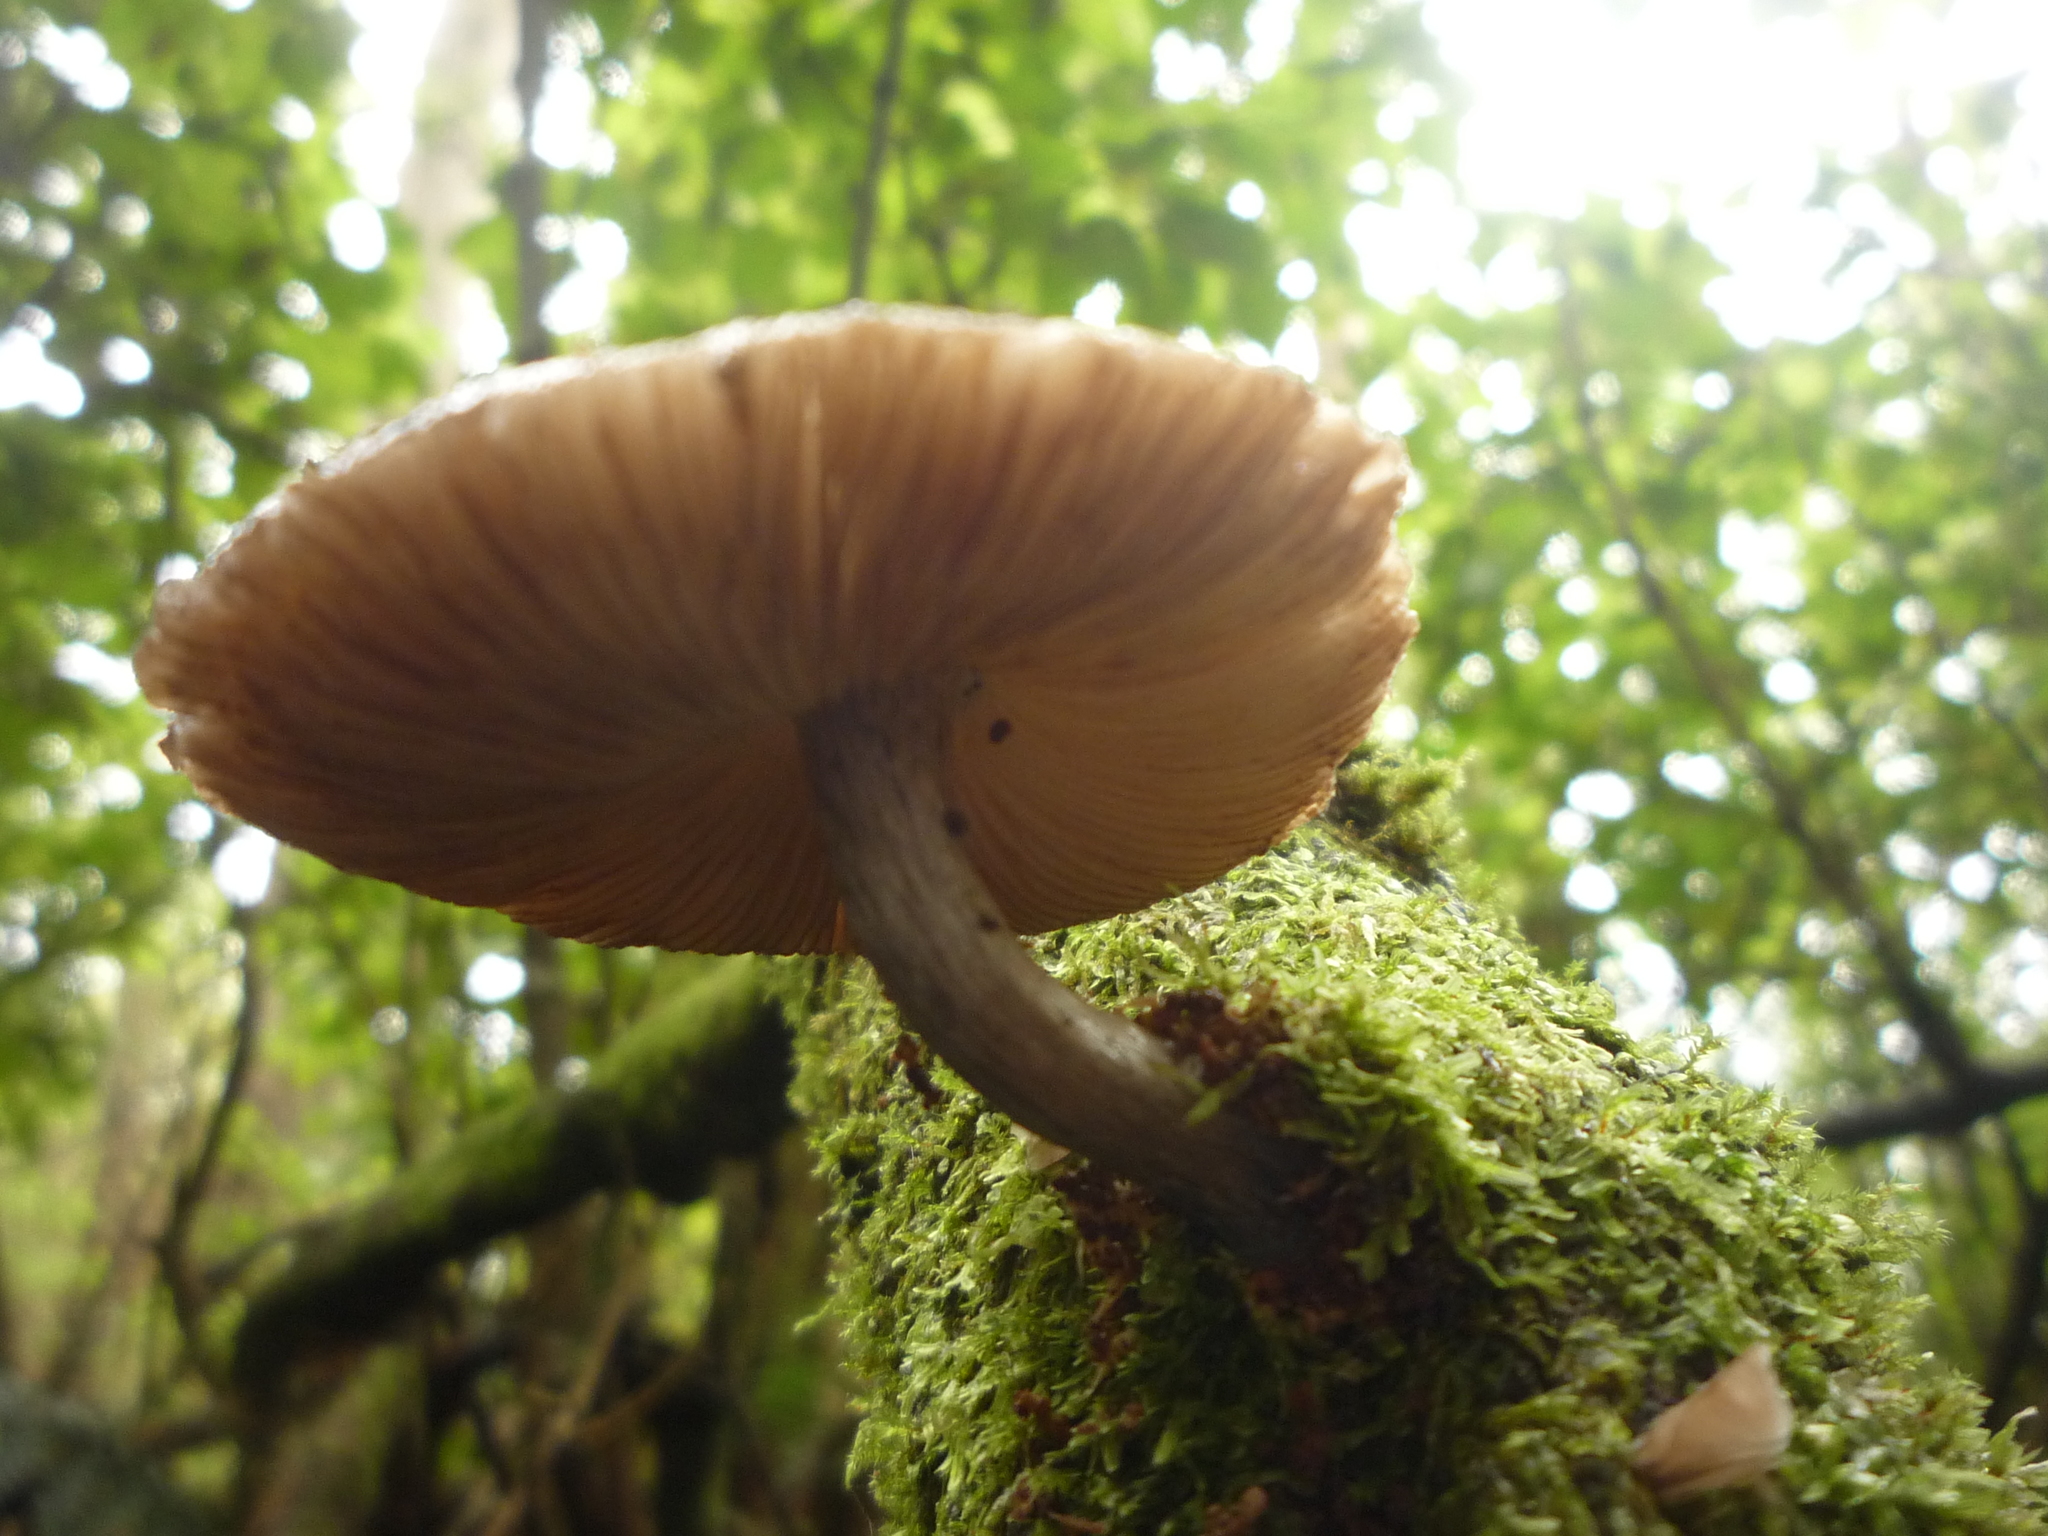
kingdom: Fungi
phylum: Basidiomycota
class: Agaricomycetes
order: Agaricales
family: Pluteaceae
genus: Pluteus
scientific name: Pluteus velutinornatus
